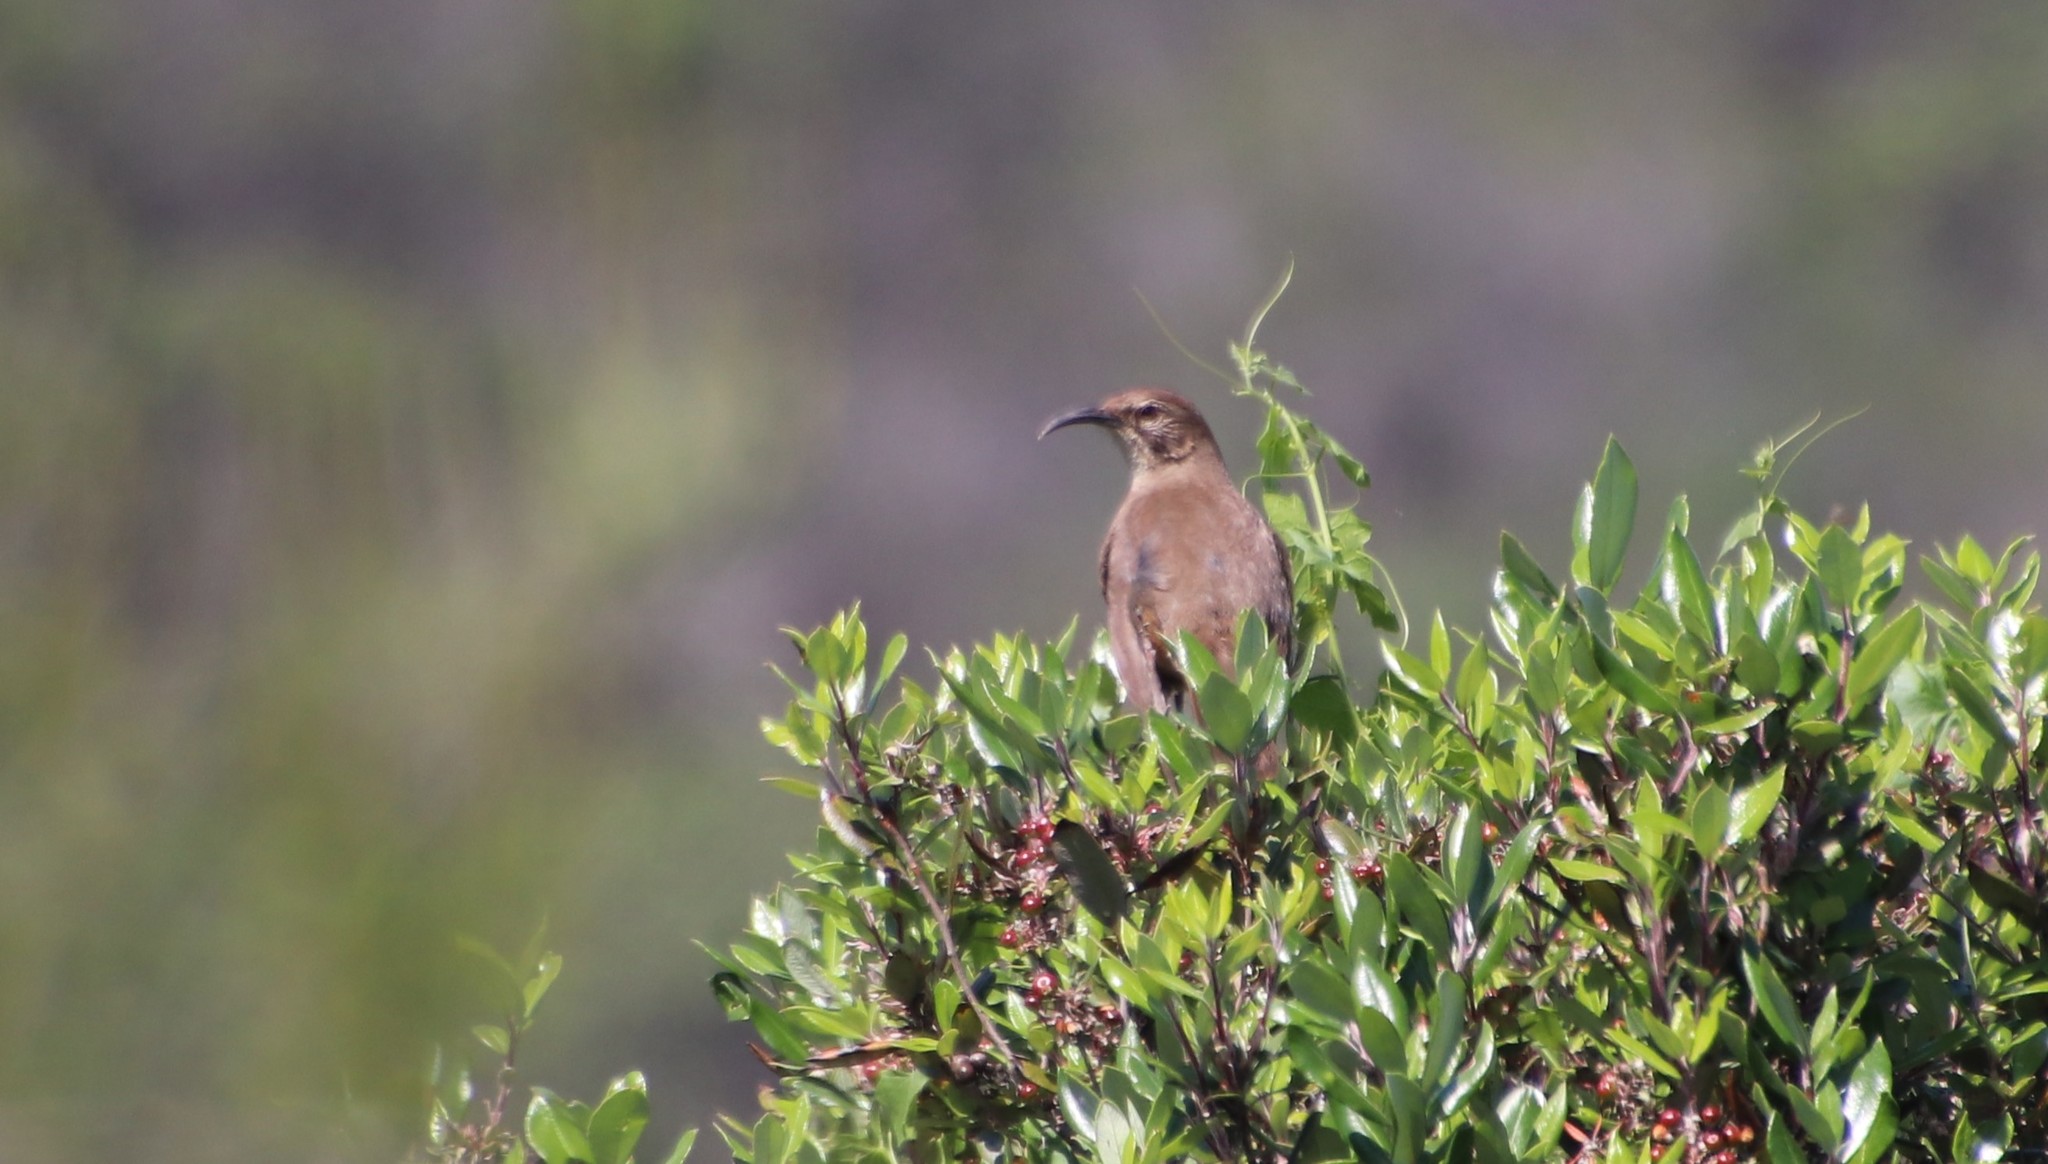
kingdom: Animalia
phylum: Chordata
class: Aves
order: Passeriformes
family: Mimidae
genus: Toxostoma
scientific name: Toxostoma redivivum
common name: California thrasher
